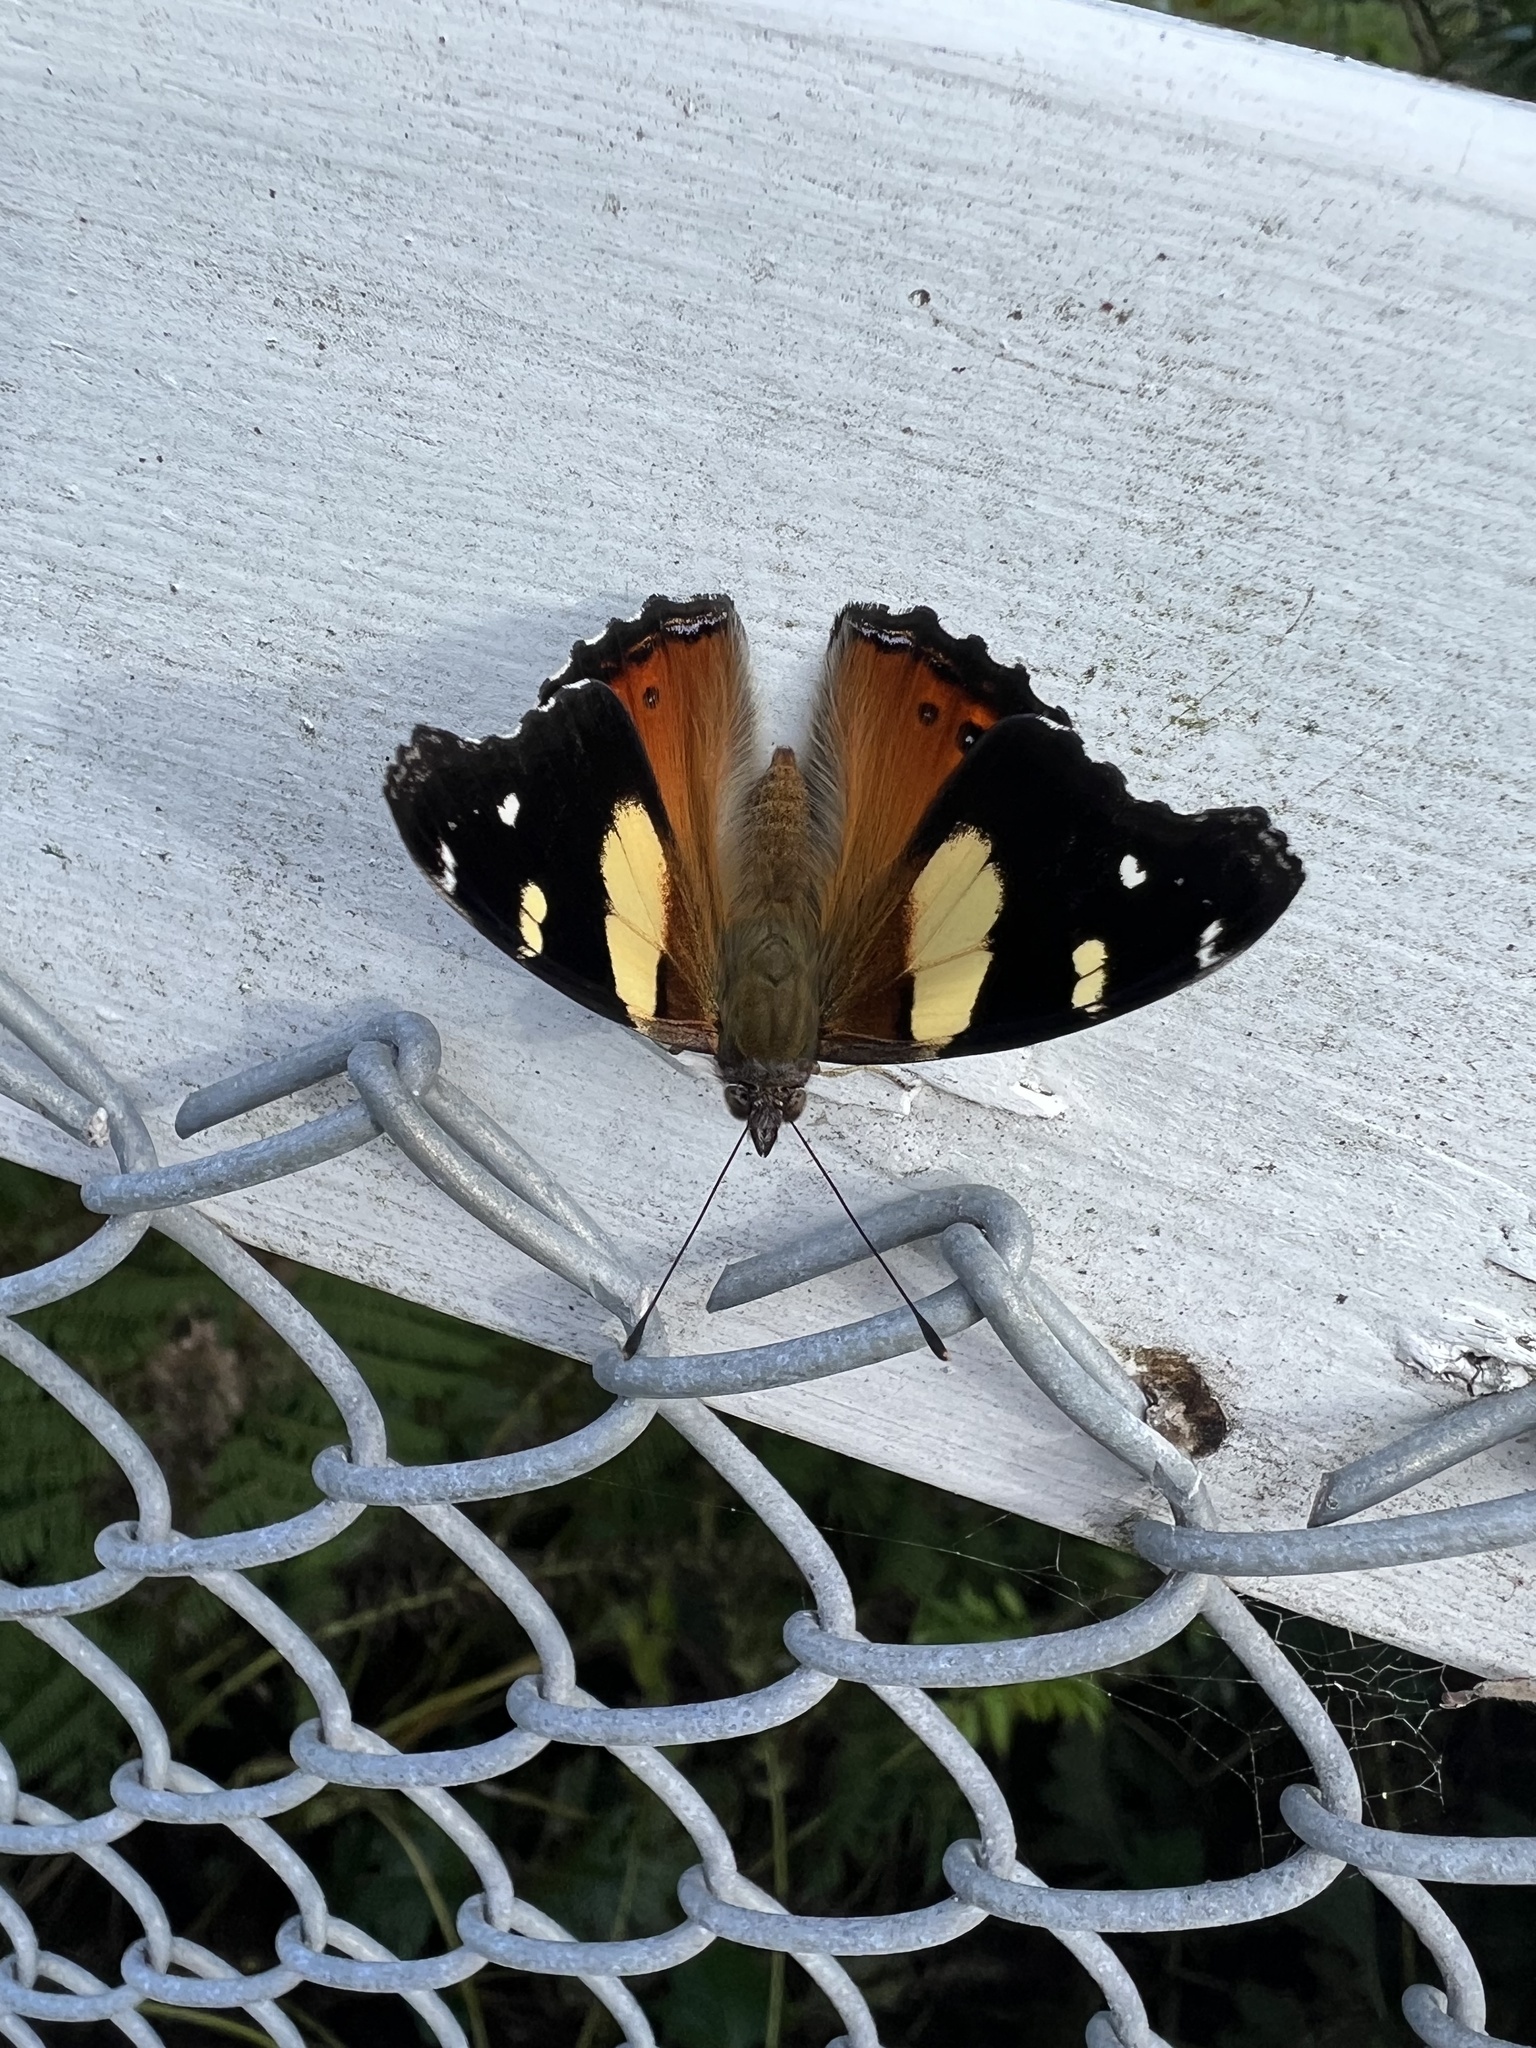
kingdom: Animalia
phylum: Arthropoda
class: Insecta
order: Lepidoptera
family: Nymphalidae
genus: Vanessa
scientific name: Vanessa itea
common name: Yellow admiral
